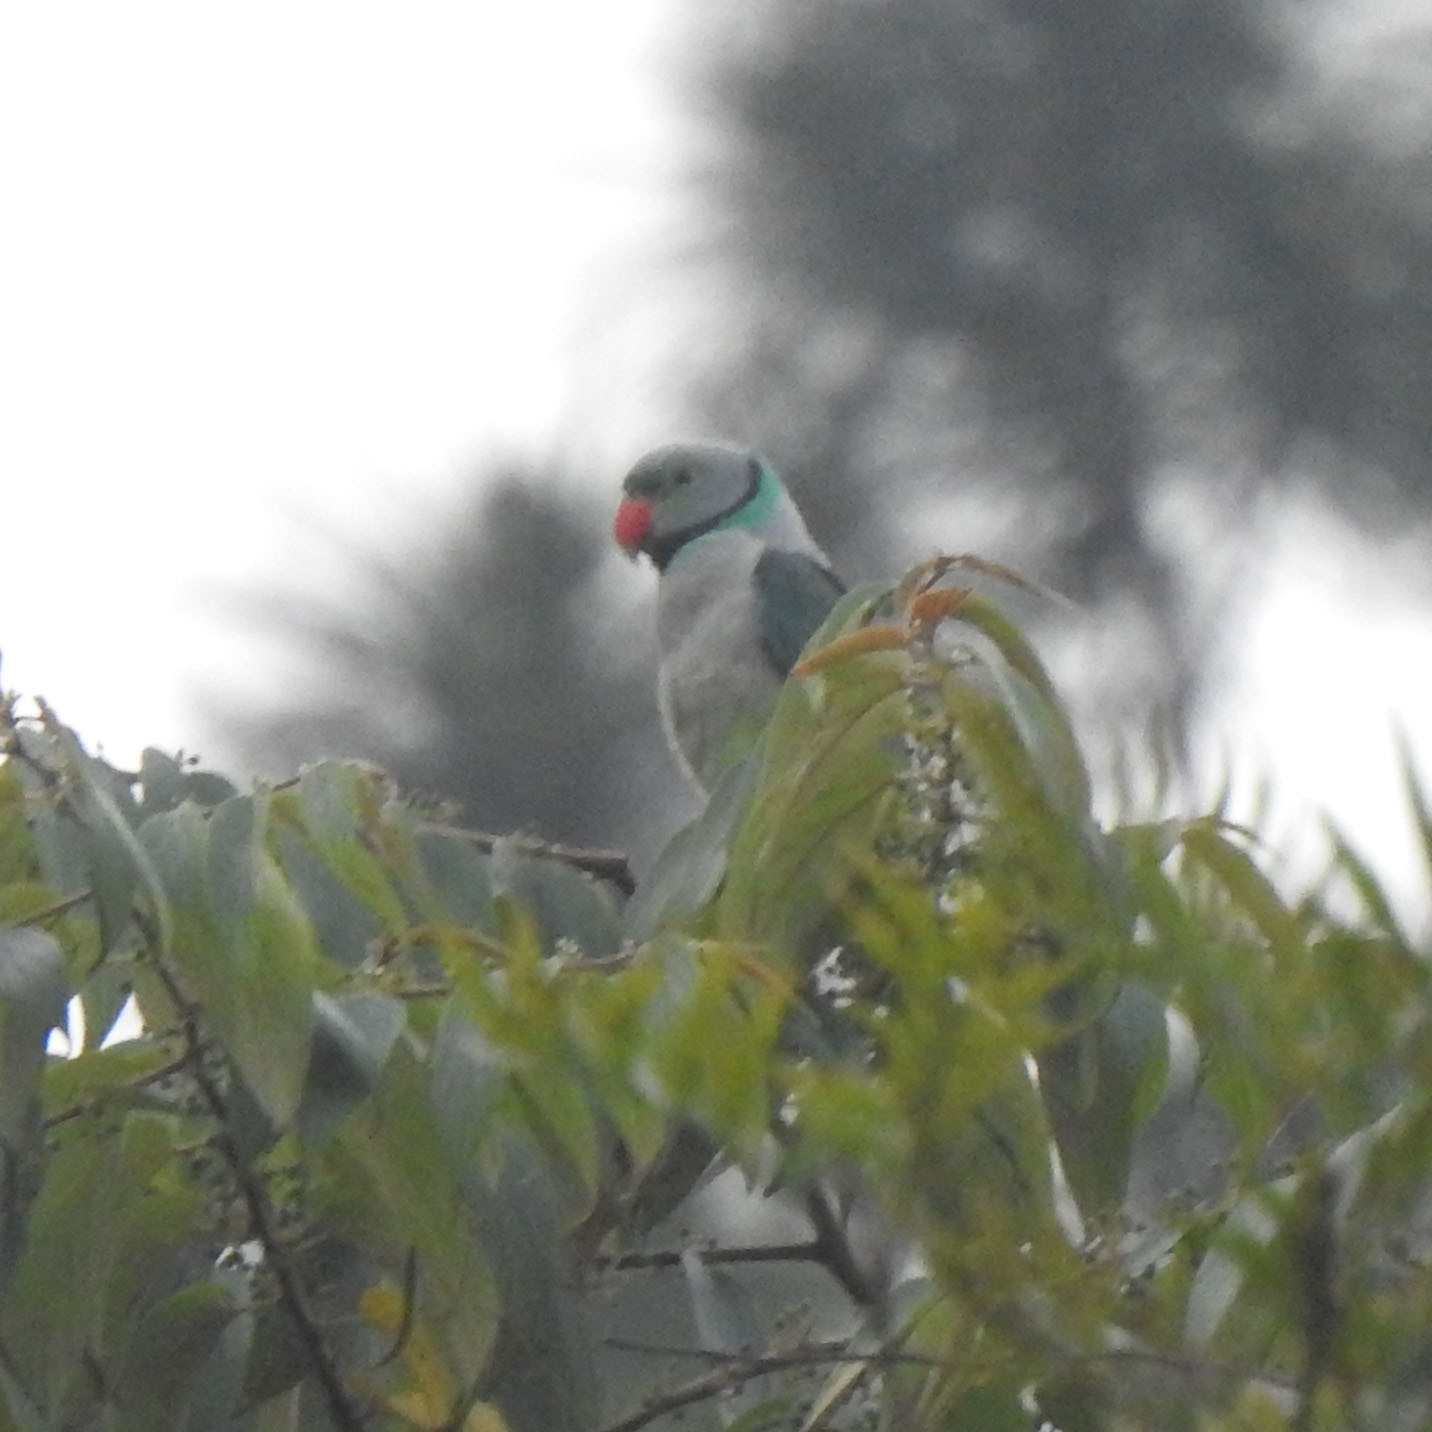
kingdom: Animalia
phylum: Chordata
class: Aves
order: Psittaciformes
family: Psittacidae
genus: Psittacula
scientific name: Psittacula columboides
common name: Blue-winged parakeet
